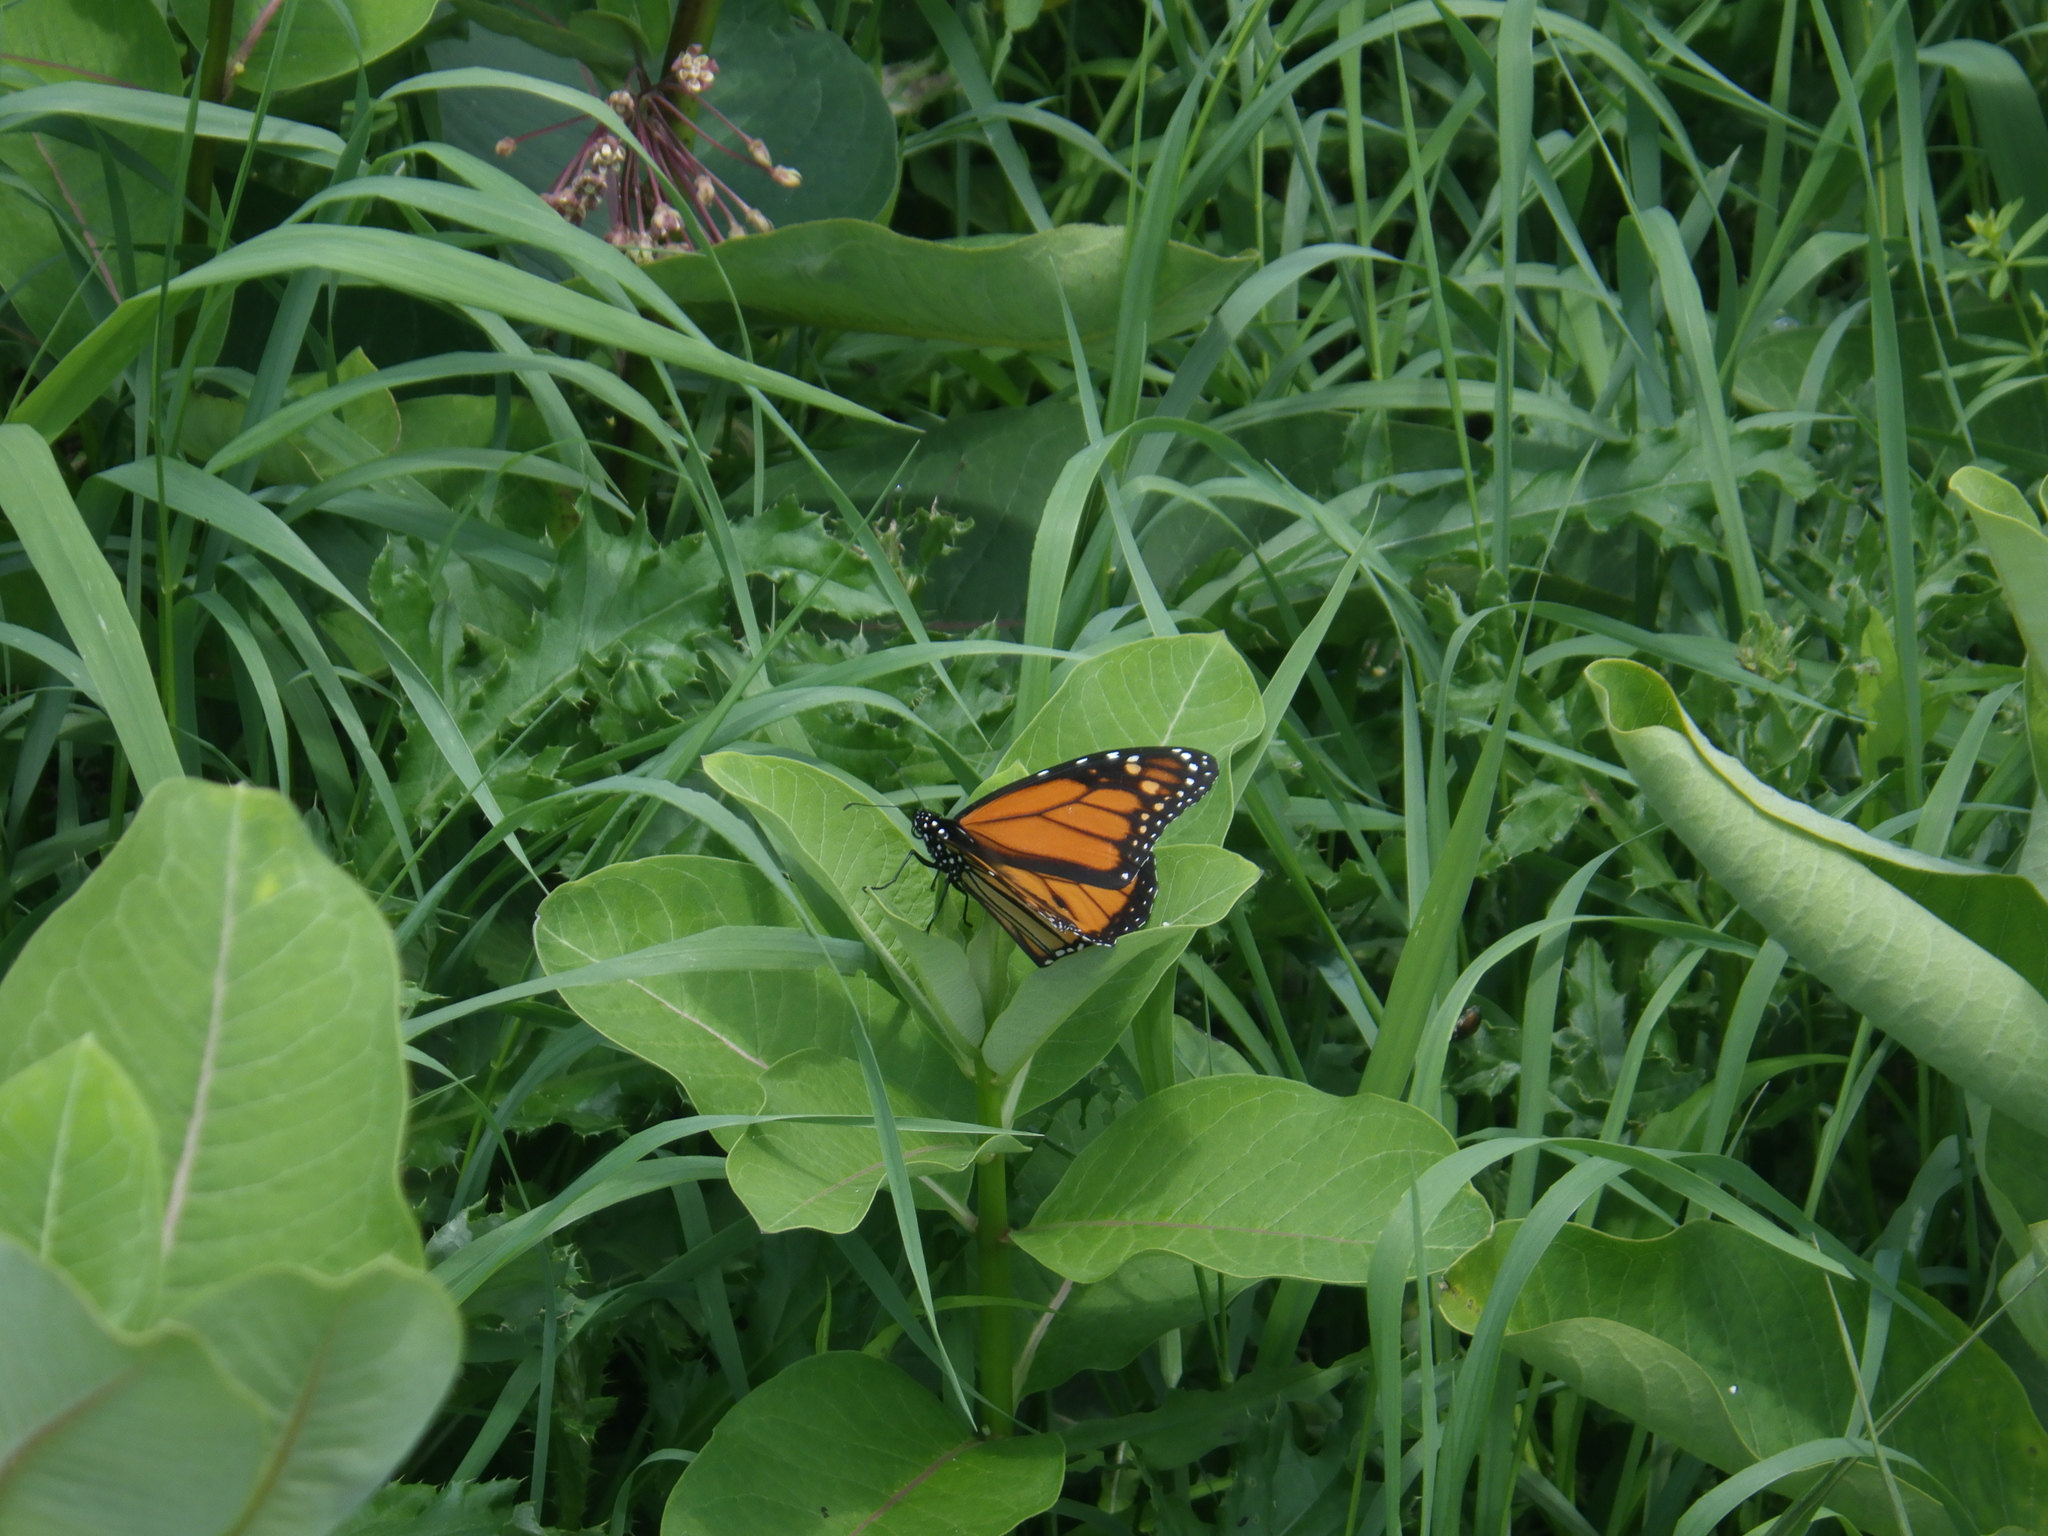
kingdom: Animalia
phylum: Arthropoda
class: Insecta
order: Lepidoptera
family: Nymphalidae
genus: Danaus
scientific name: Danaus plexippus
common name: Monarch
